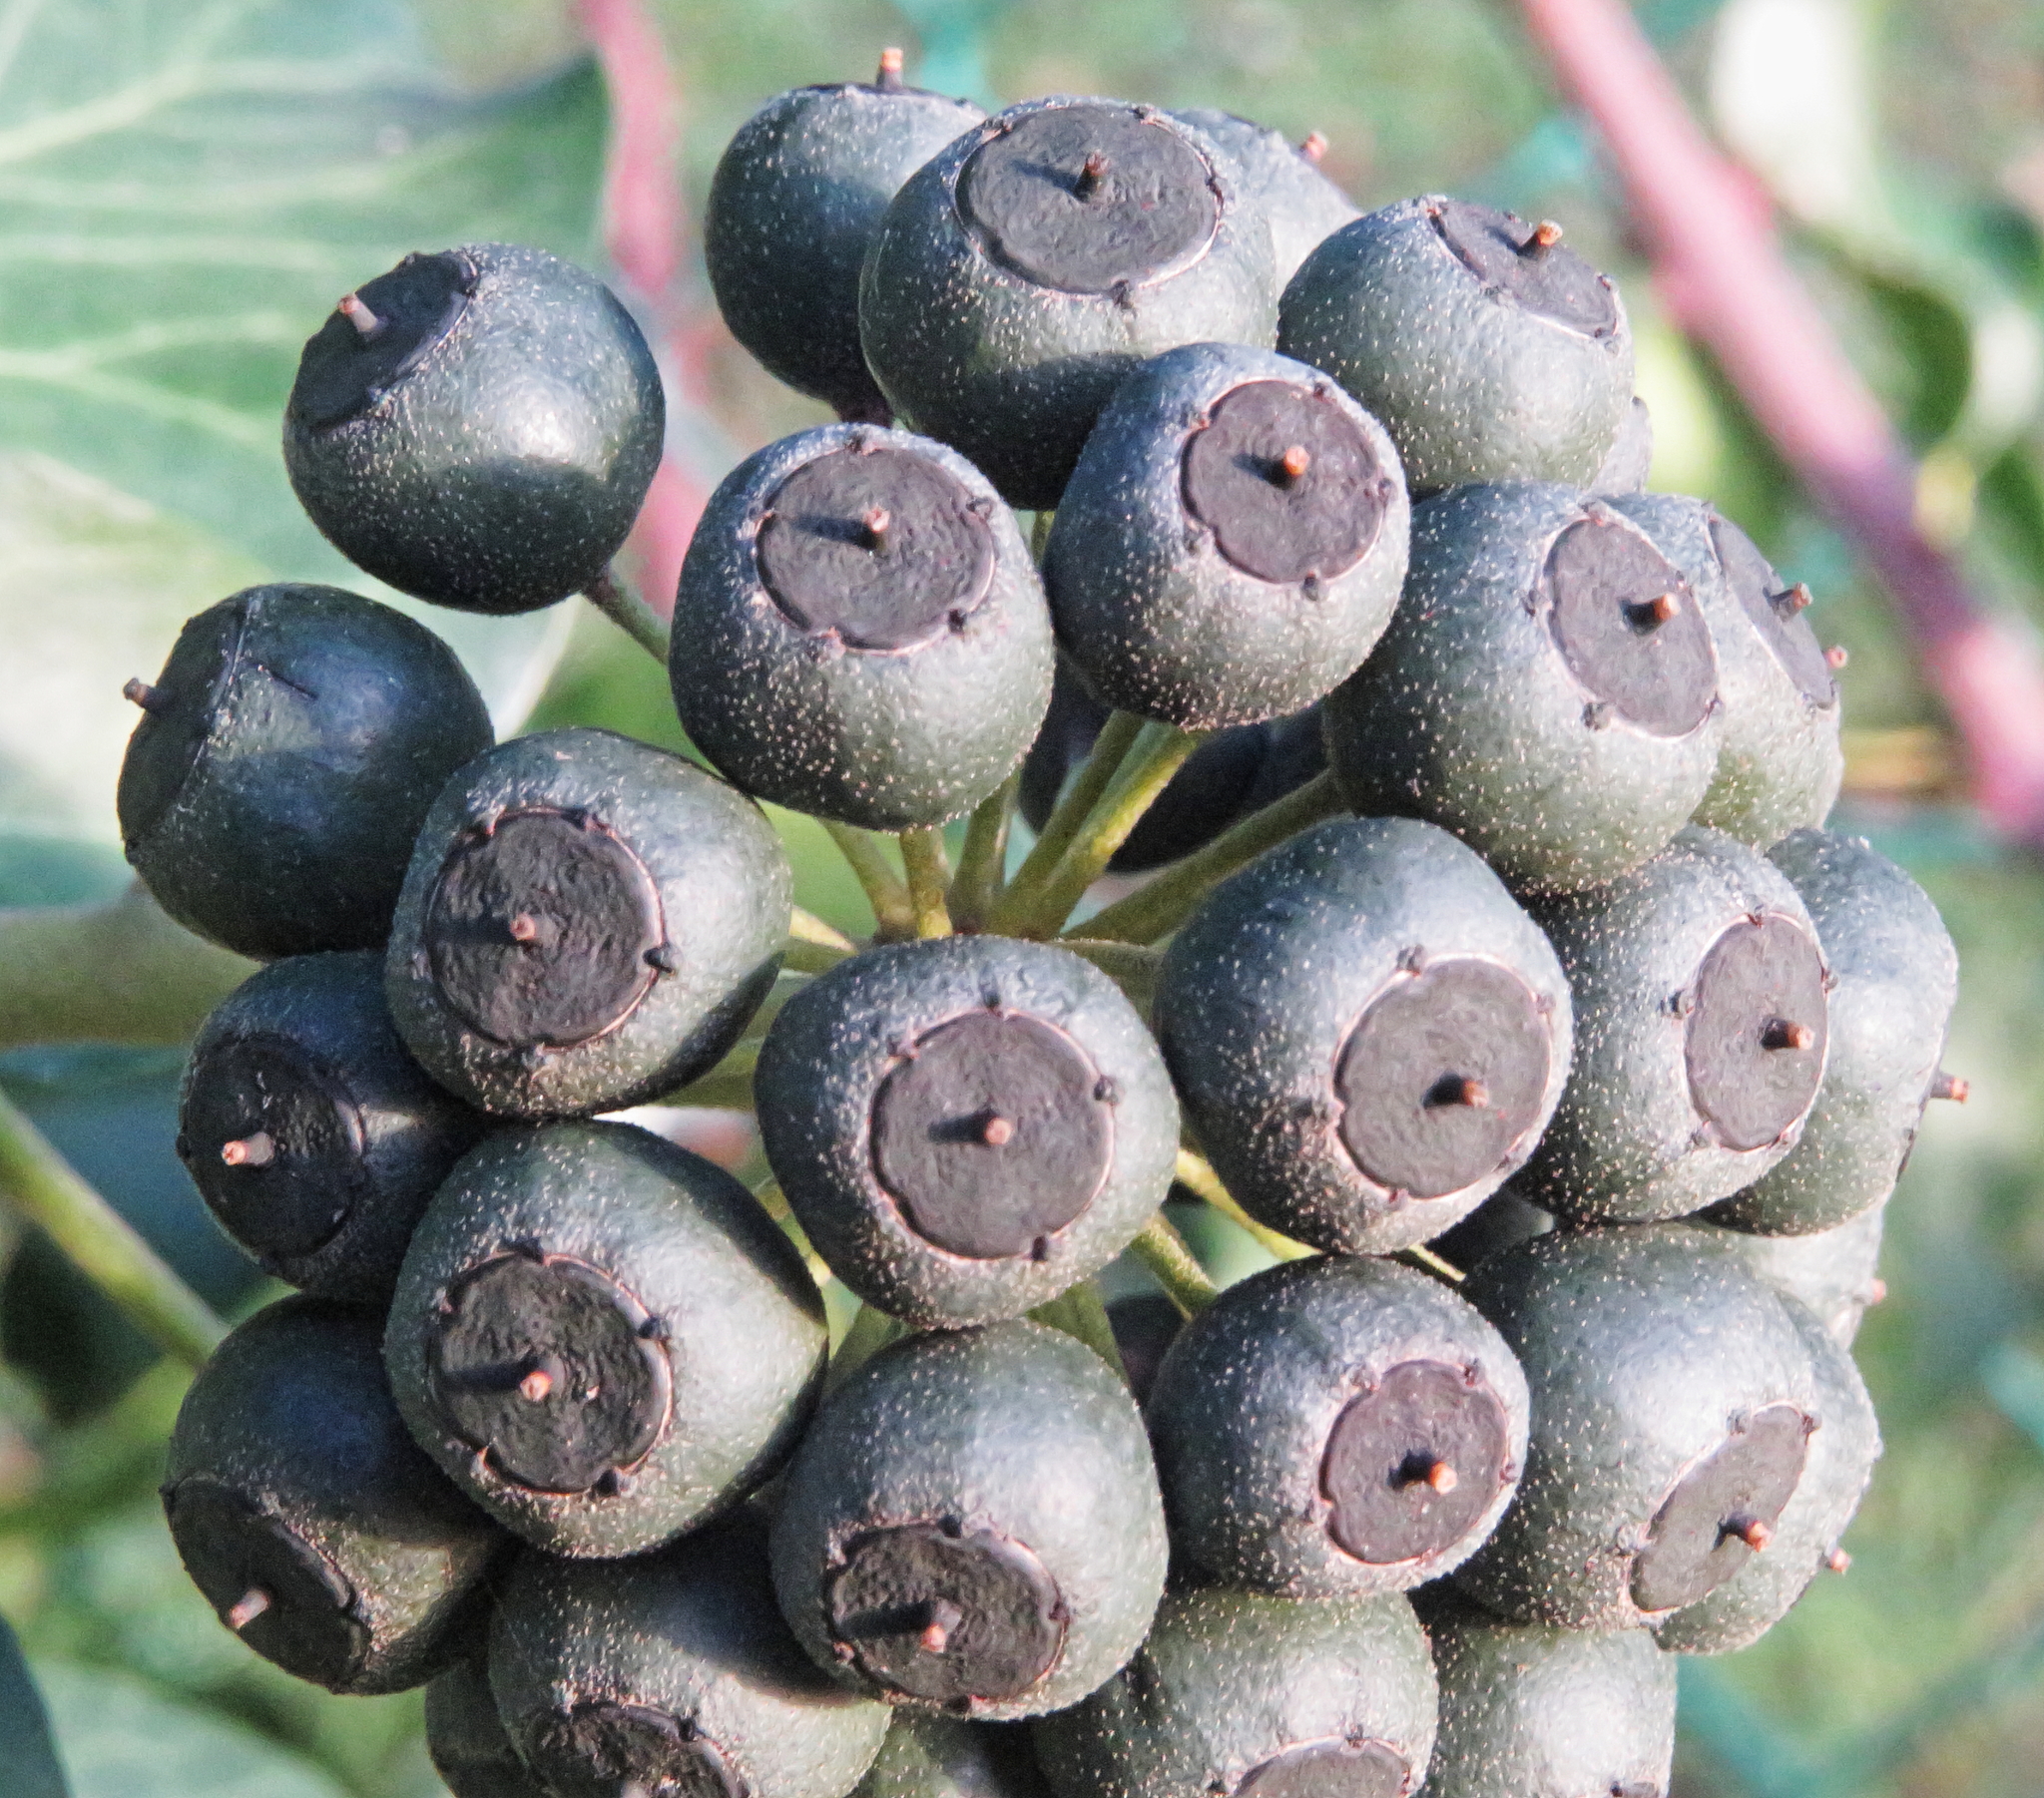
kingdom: Plantae
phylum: Tracheophyta
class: Magnoliopsida
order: Apiales
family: Araliaceae
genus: Hedera
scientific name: Hedera helix
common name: Ivy
